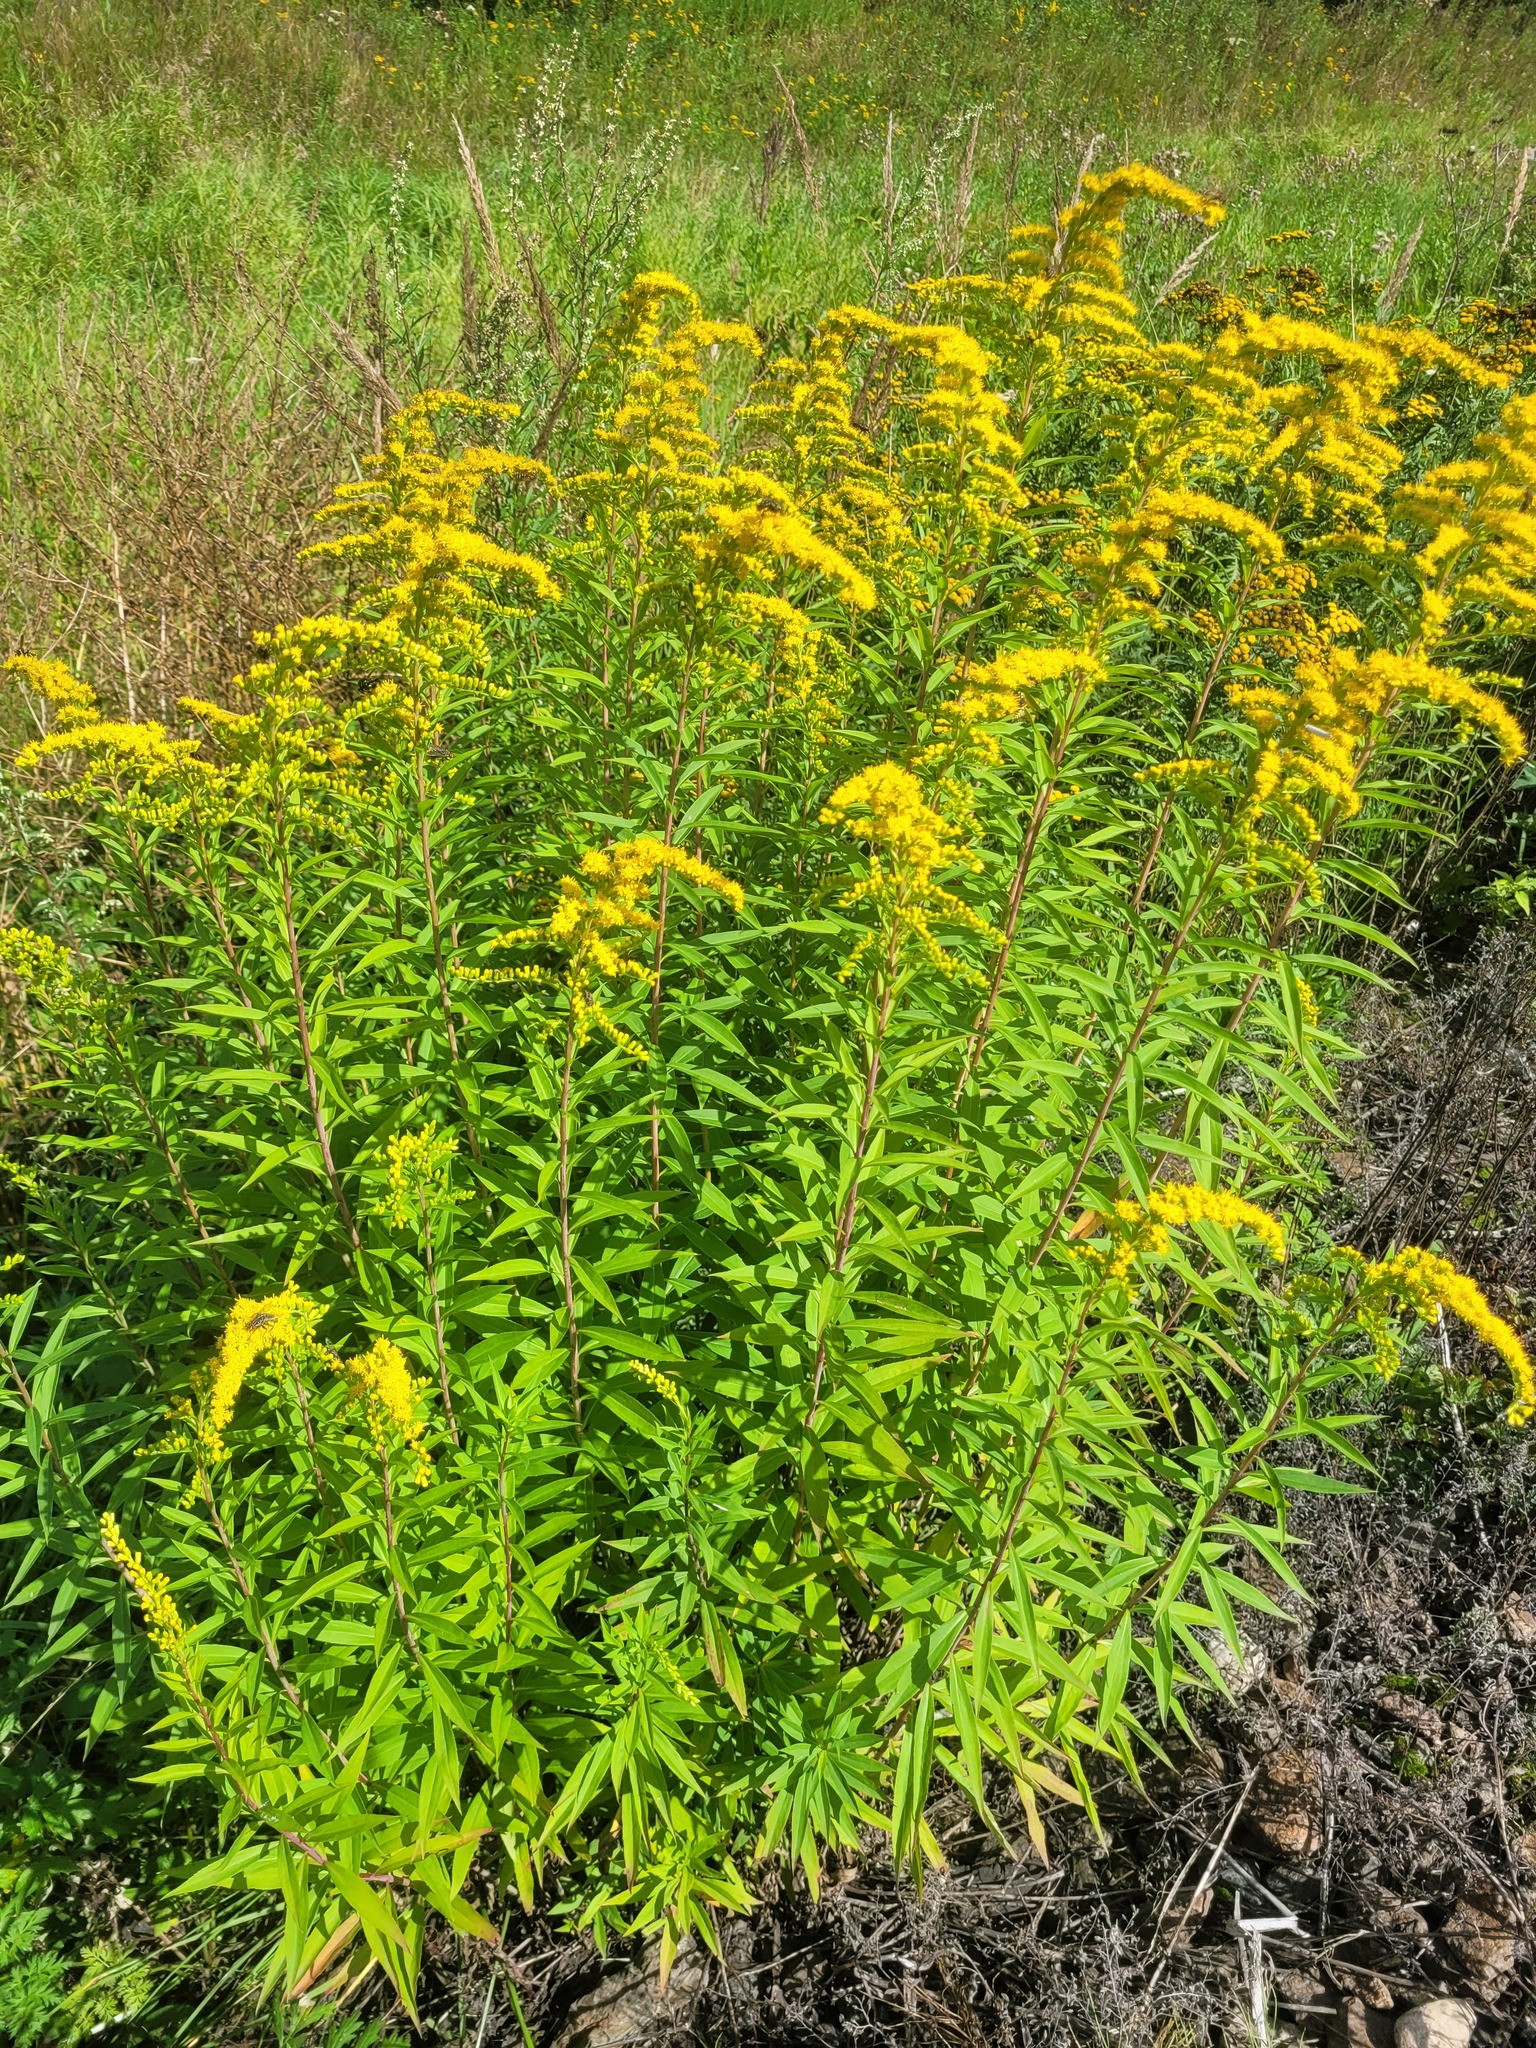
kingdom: Plantae
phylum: Tracheophyta
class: Magnoliopsida
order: Asterales
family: Asteraceae
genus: Solidago
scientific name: Solidago gigantea
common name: Giant goldenrod
